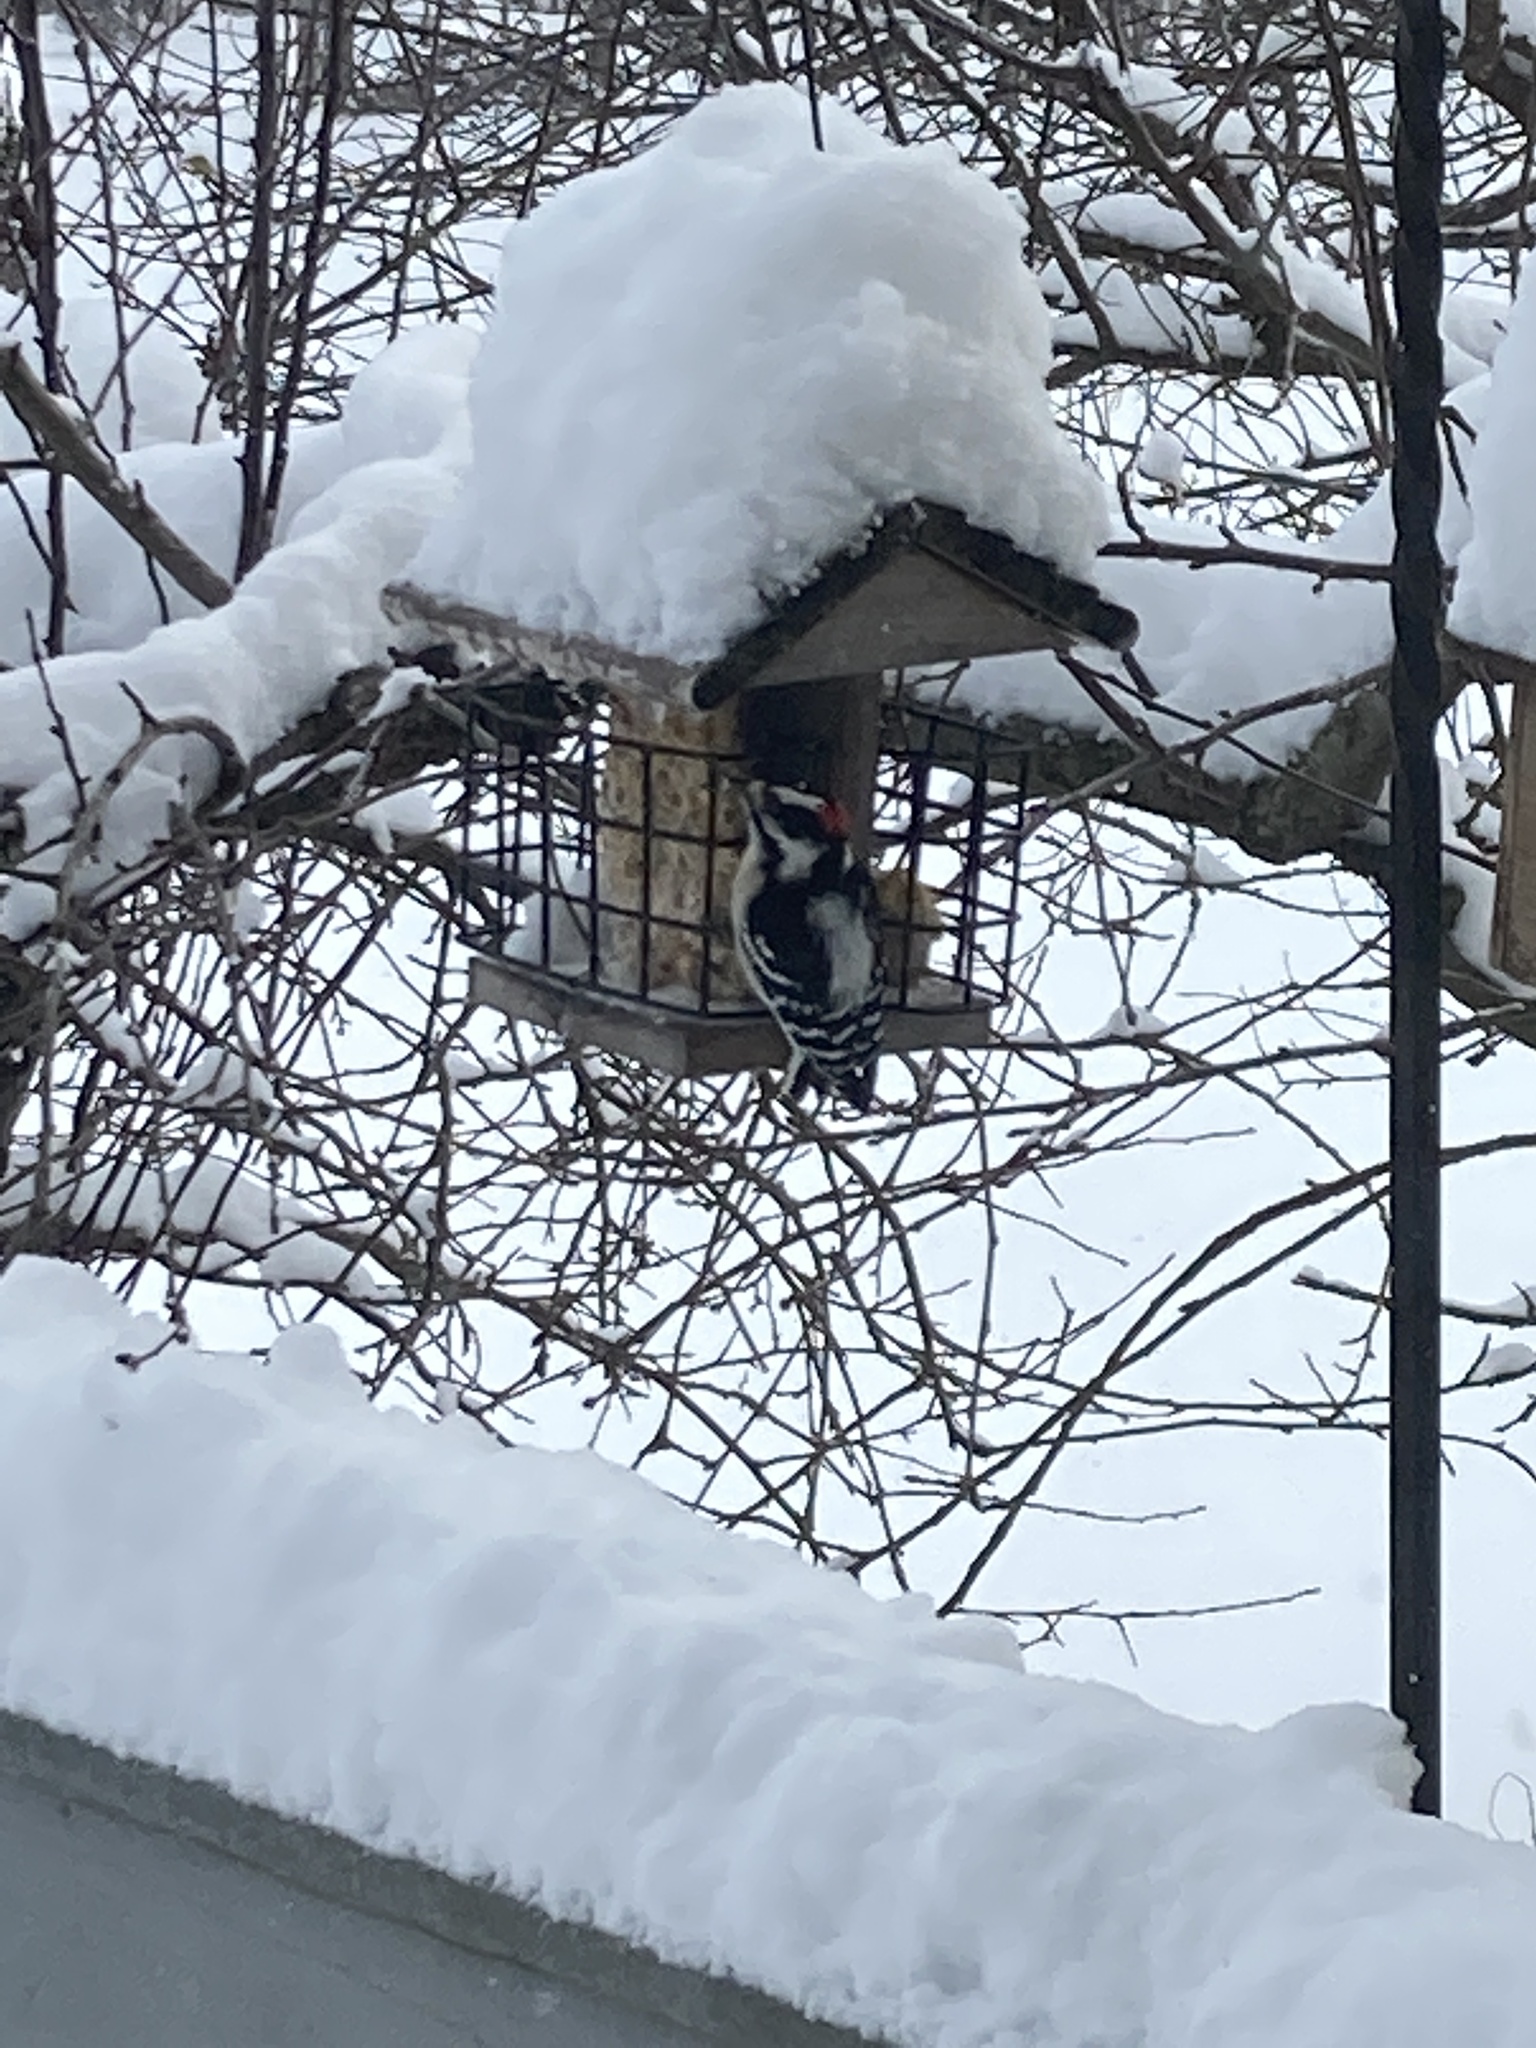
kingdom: Animalia
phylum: Chordata
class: Aves
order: Piciformes
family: Picidae
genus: Dryobates
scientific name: Dryobates pubescens
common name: Downy woodpecker
